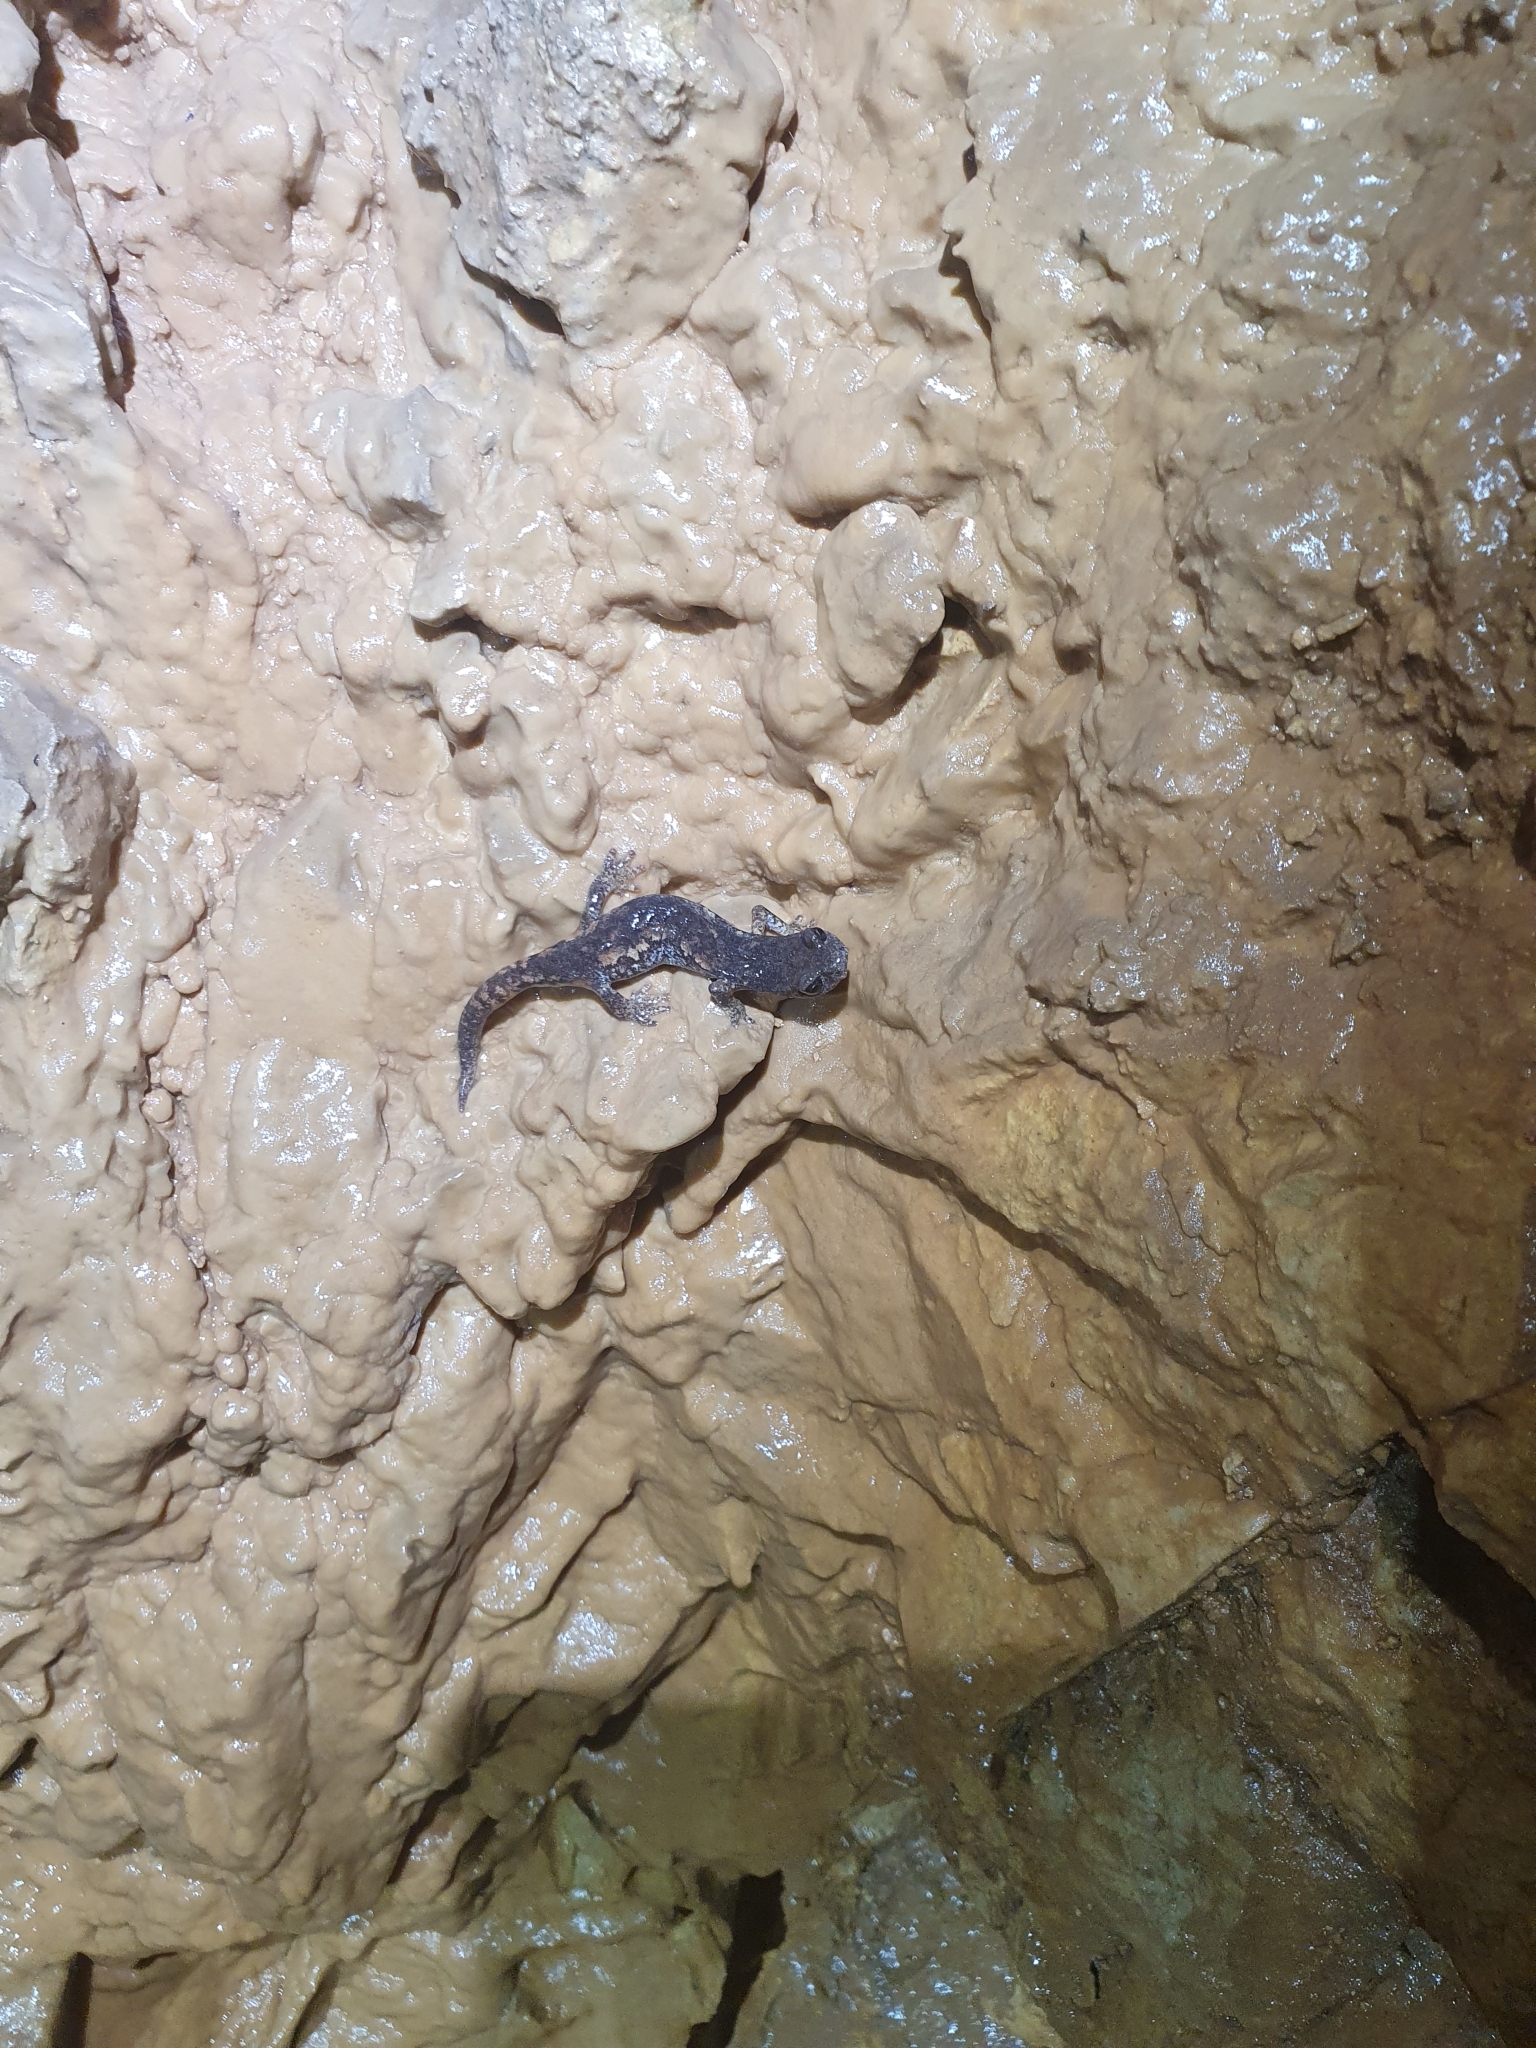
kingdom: Animalia
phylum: Chordata
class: Amphibia
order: Caudata
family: Plethodontidae
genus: Speleomantes
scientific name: Speleomantes ambrosii
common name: Ambrosi's cave salamander
